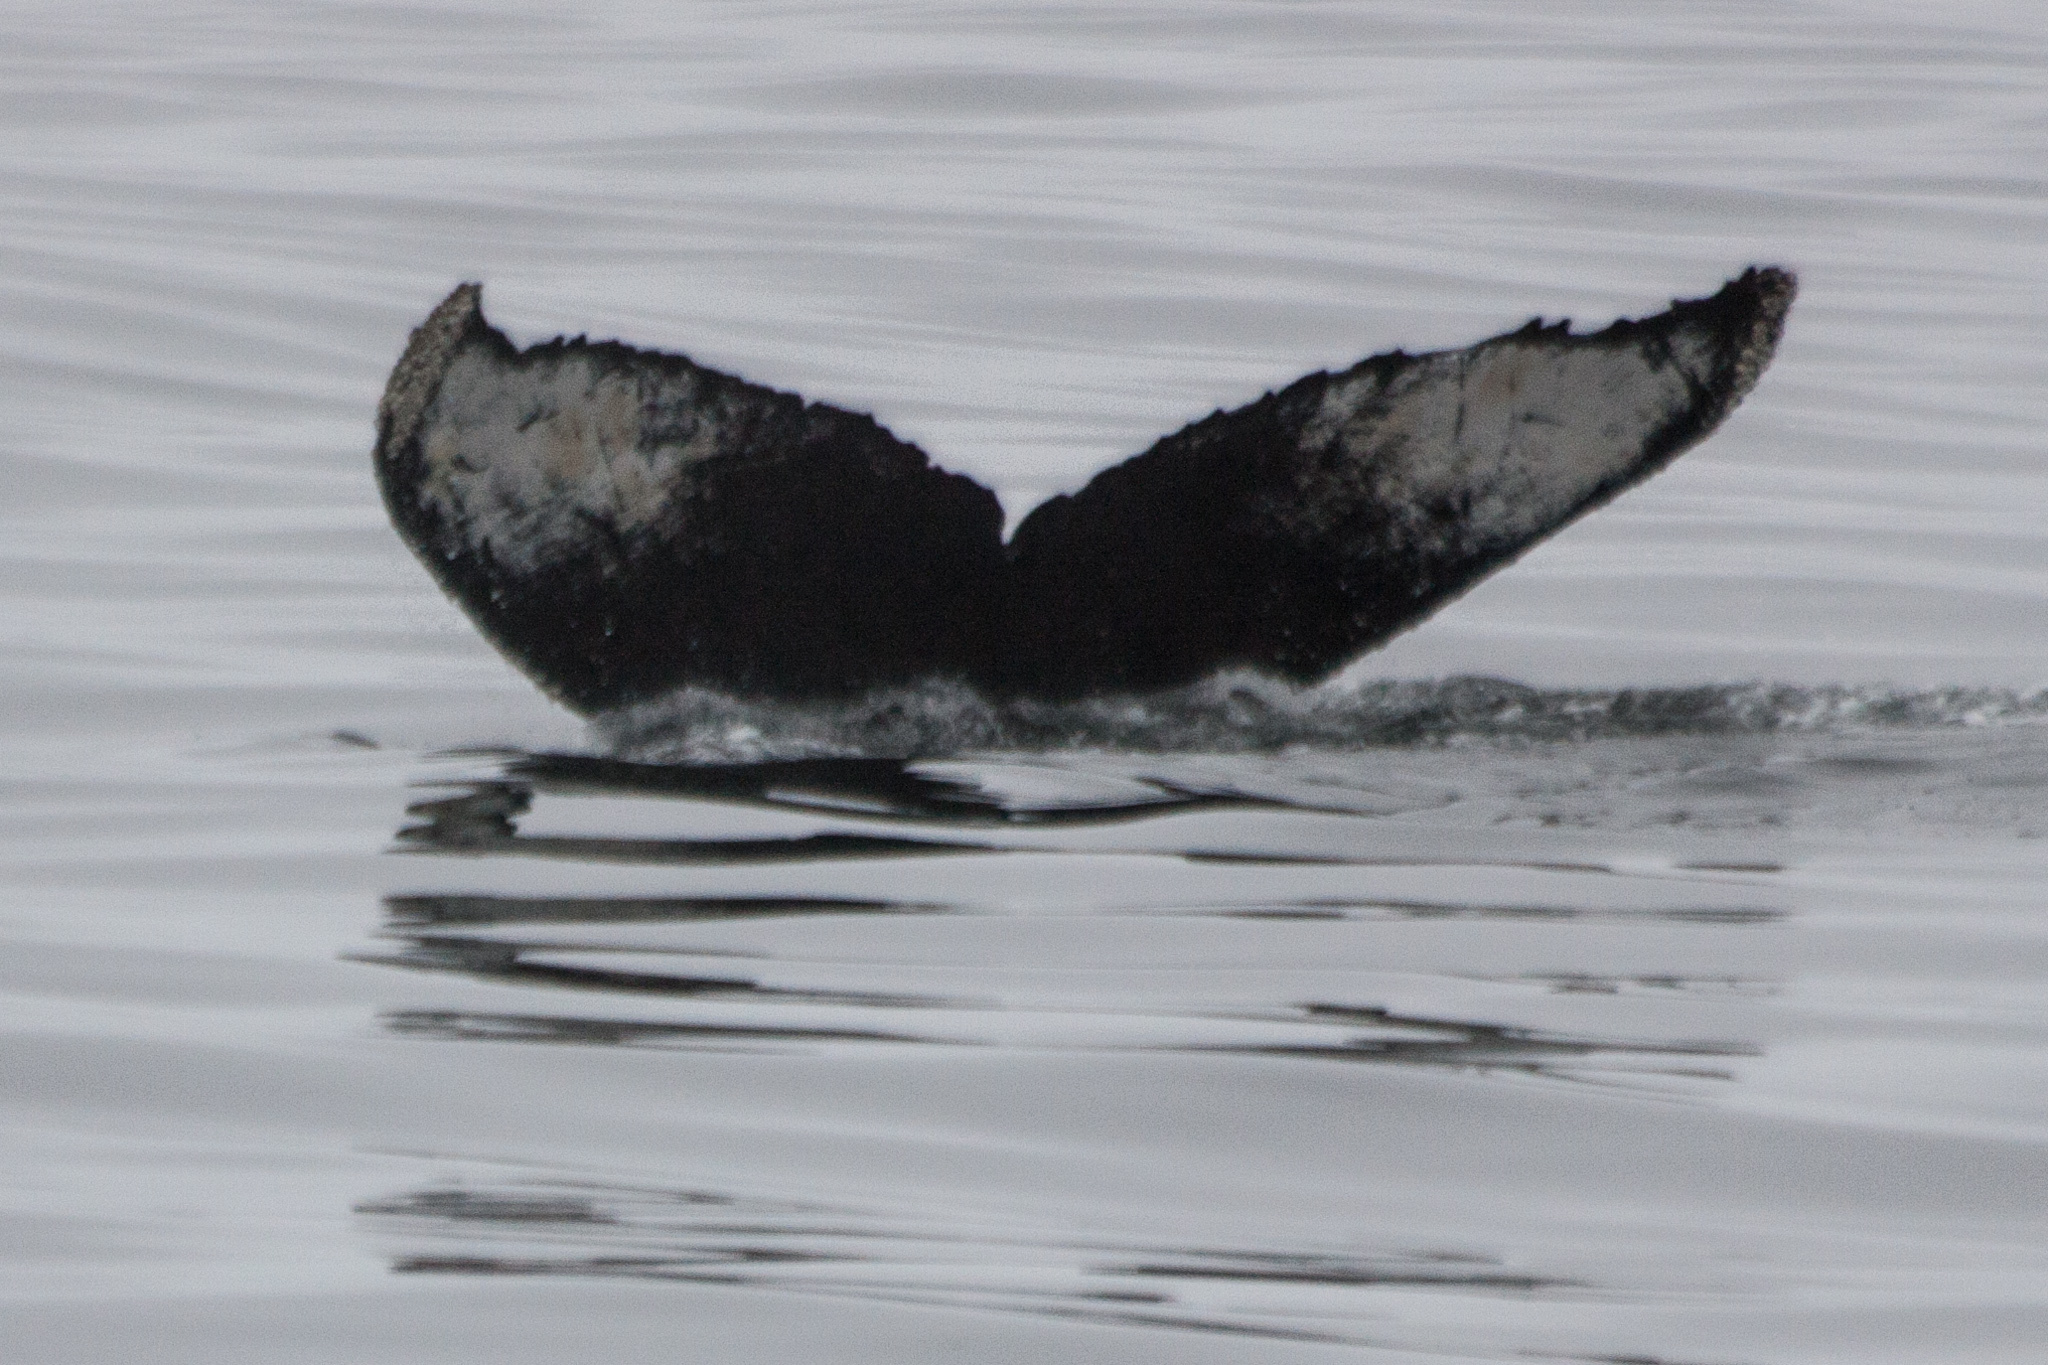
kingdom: Animalia
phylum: Chordata
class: Mammalia
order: Cetacea
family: Balaenopteridae
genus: Megaptera
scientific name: Megaptera novaeangliae
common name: Humpback whale
